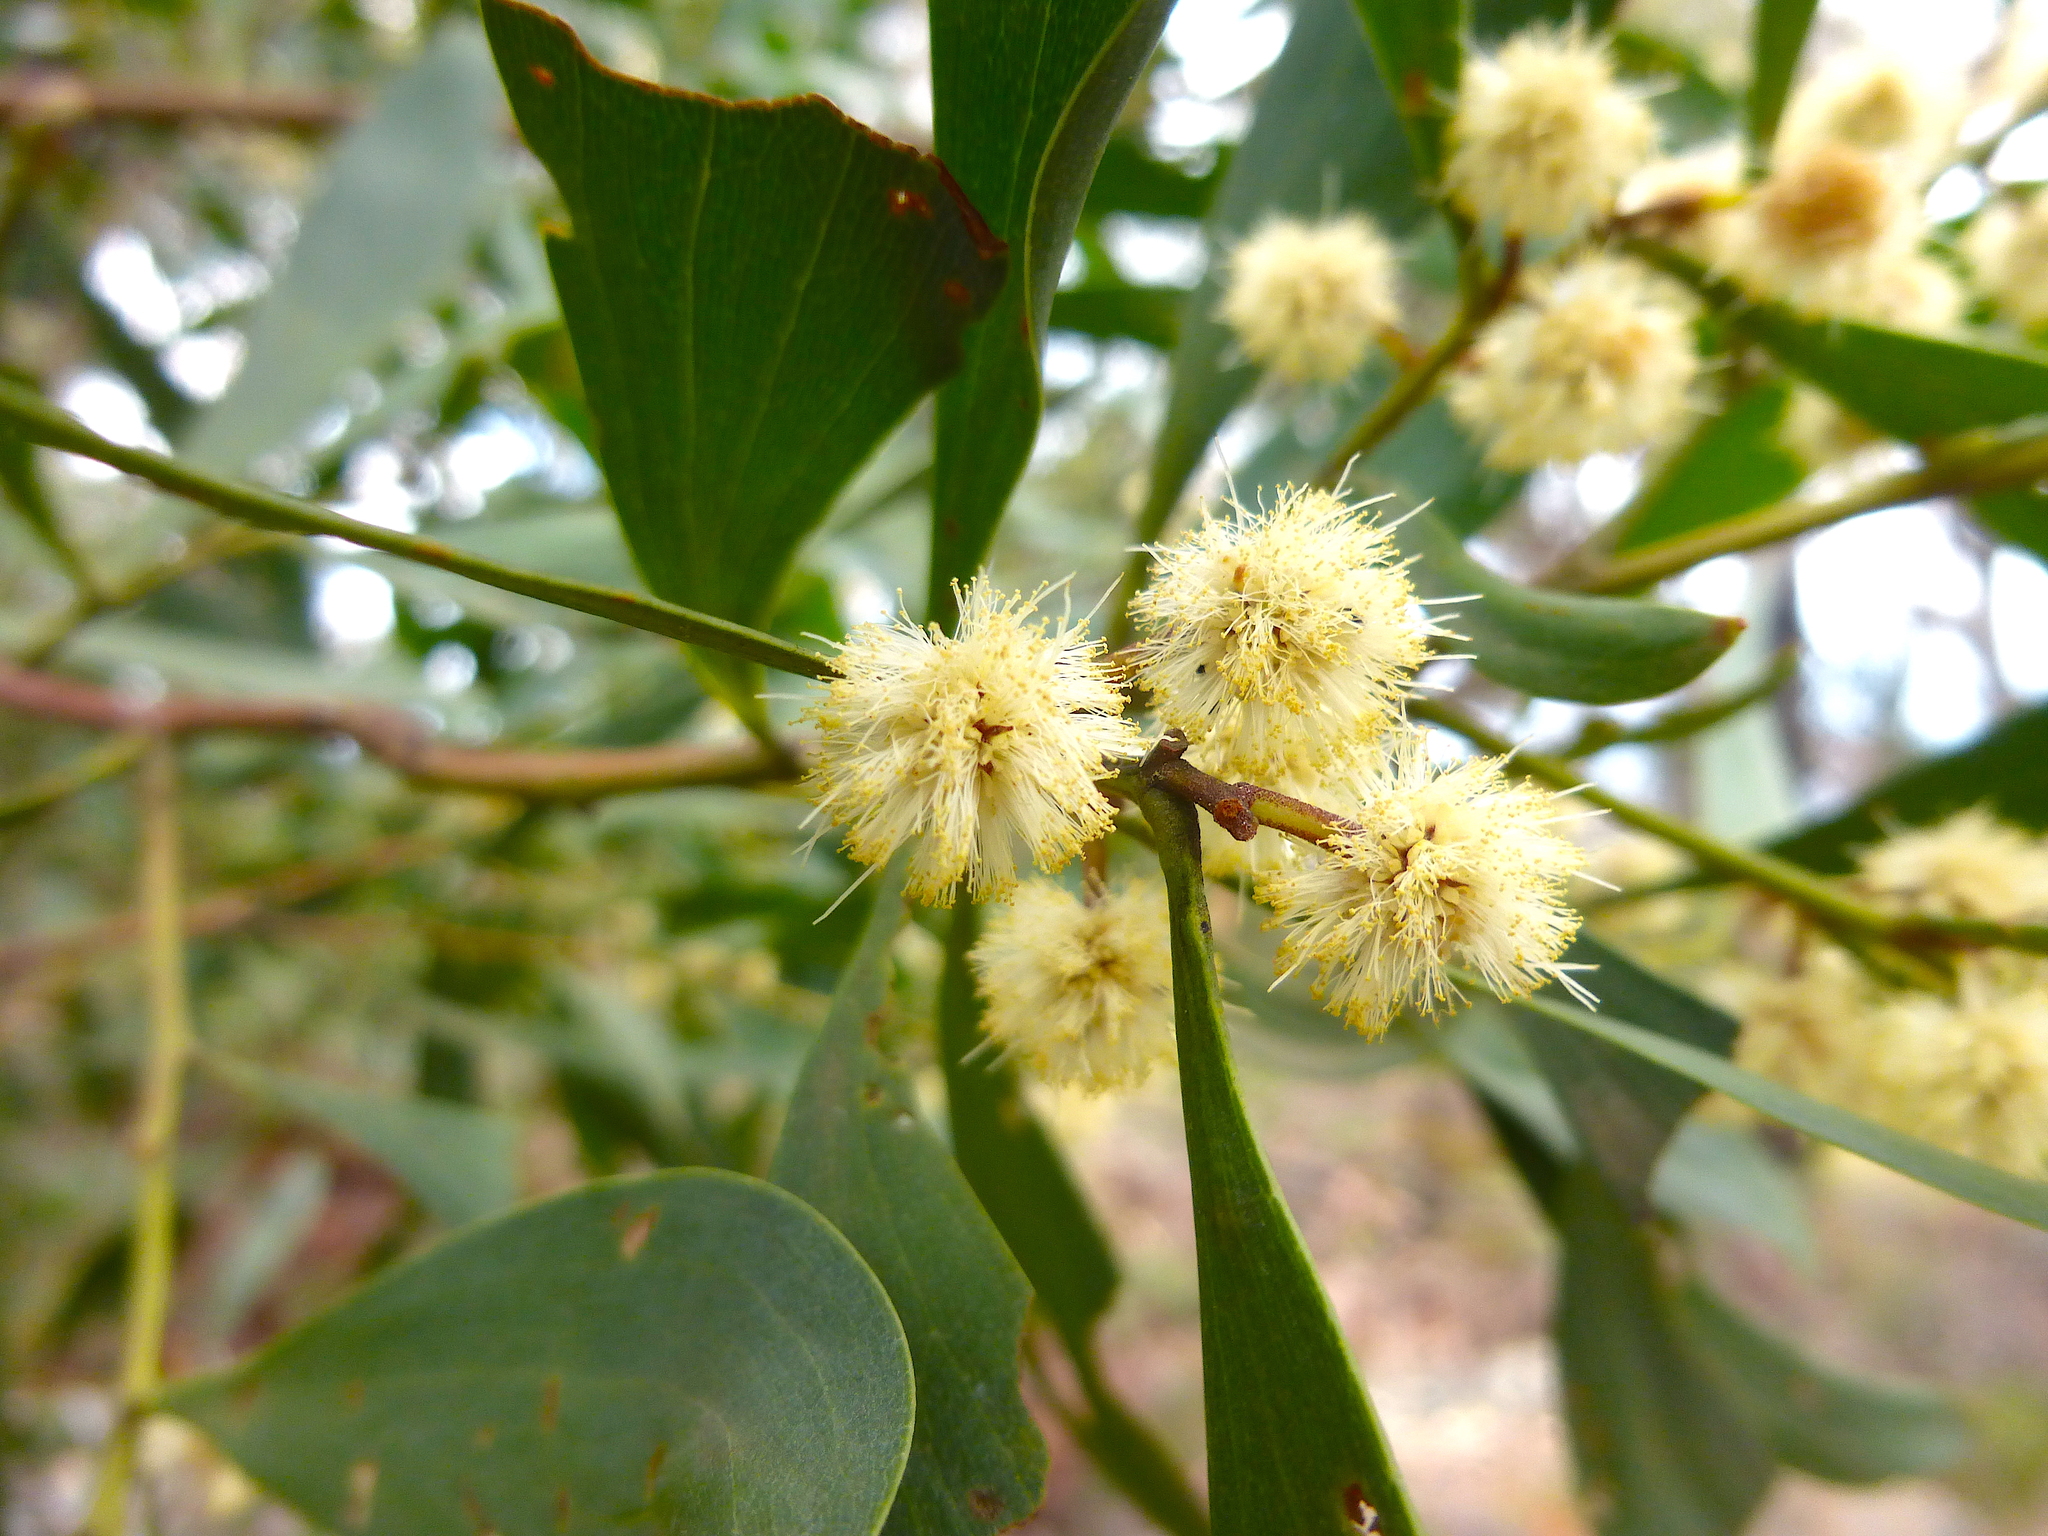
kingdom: Plantae
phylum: Tracheophyta
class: Magnoliopsida
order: Fabales
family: Fabaceae
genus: Acacia
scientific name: Acacia melanoxylon
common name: Blackwood
